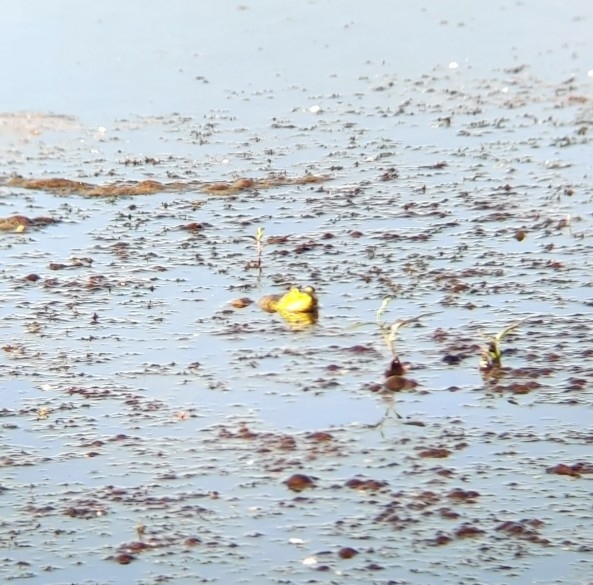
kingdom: Animalia
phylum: Chordata
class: Amphibia
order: Anura
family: Ranidae
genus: Lithobates
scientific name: Lithobates catesbeianus
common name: American bullfrog
